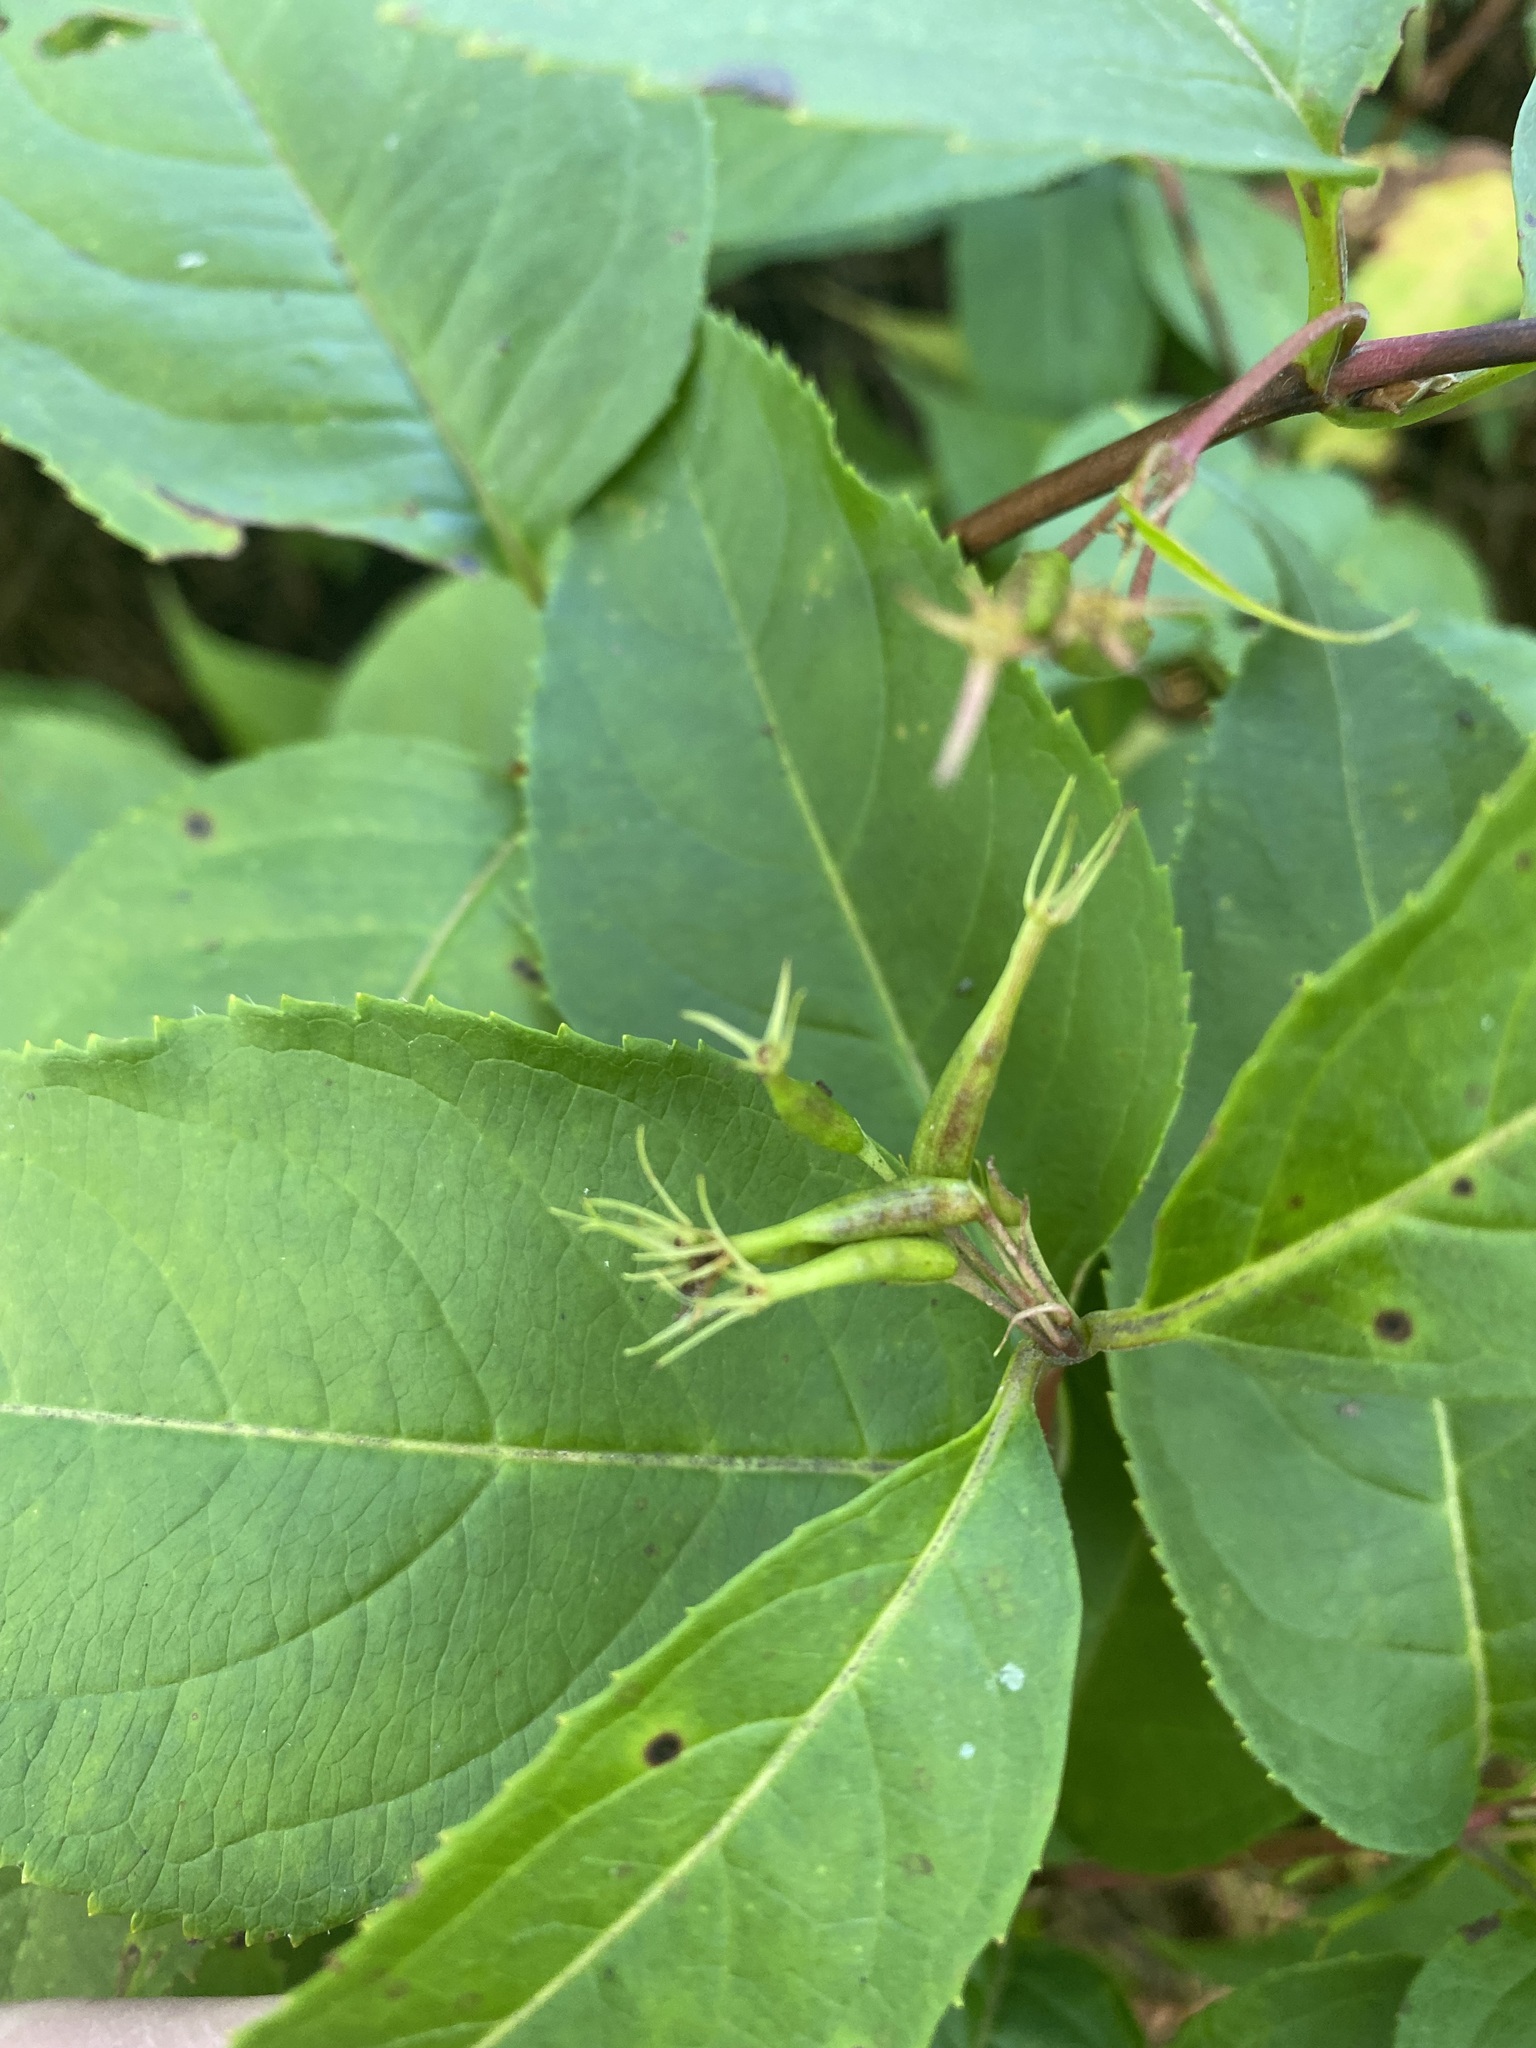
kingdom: Plantae
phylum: Tracheophyta
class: Magnoliopsida
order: Dipsacales
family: Caprifoliaceae
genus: Diervilla
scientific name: Diervilla lonicera
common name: Bush-honeysuckle
